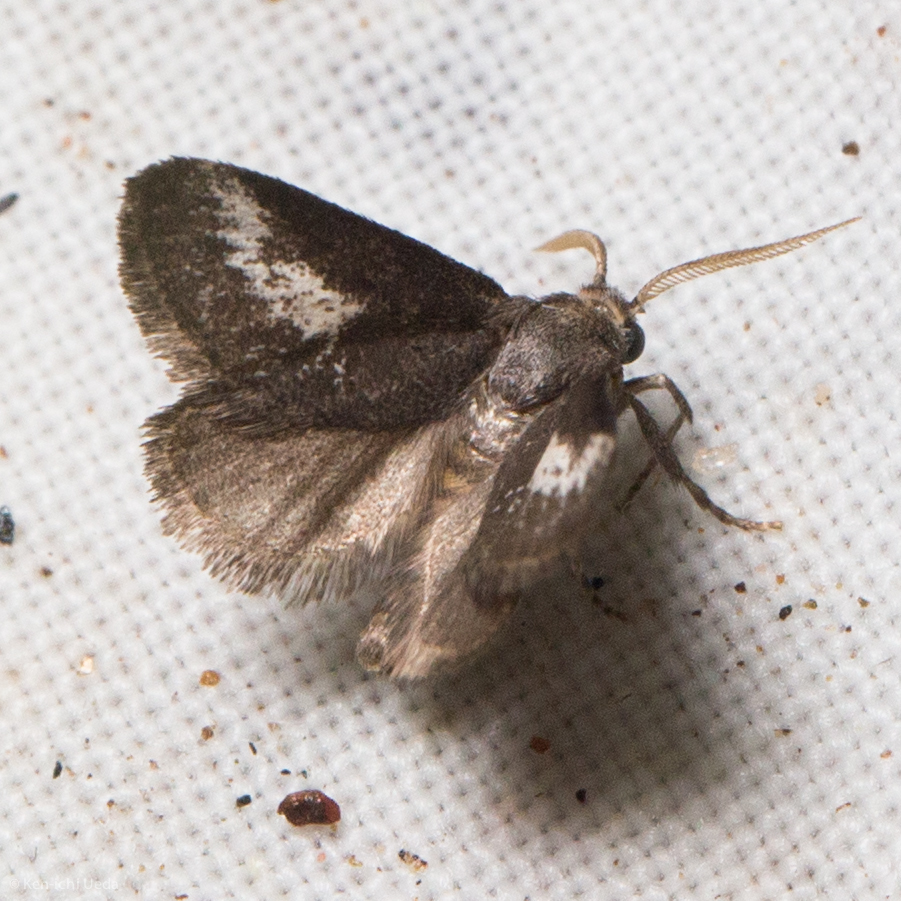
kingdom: Animalia
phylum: Arthropoda
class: Insecta
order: Lepidoptera
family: Limacodidae
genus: Cryptophobetron
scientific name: Cryptophobetron oropeso
